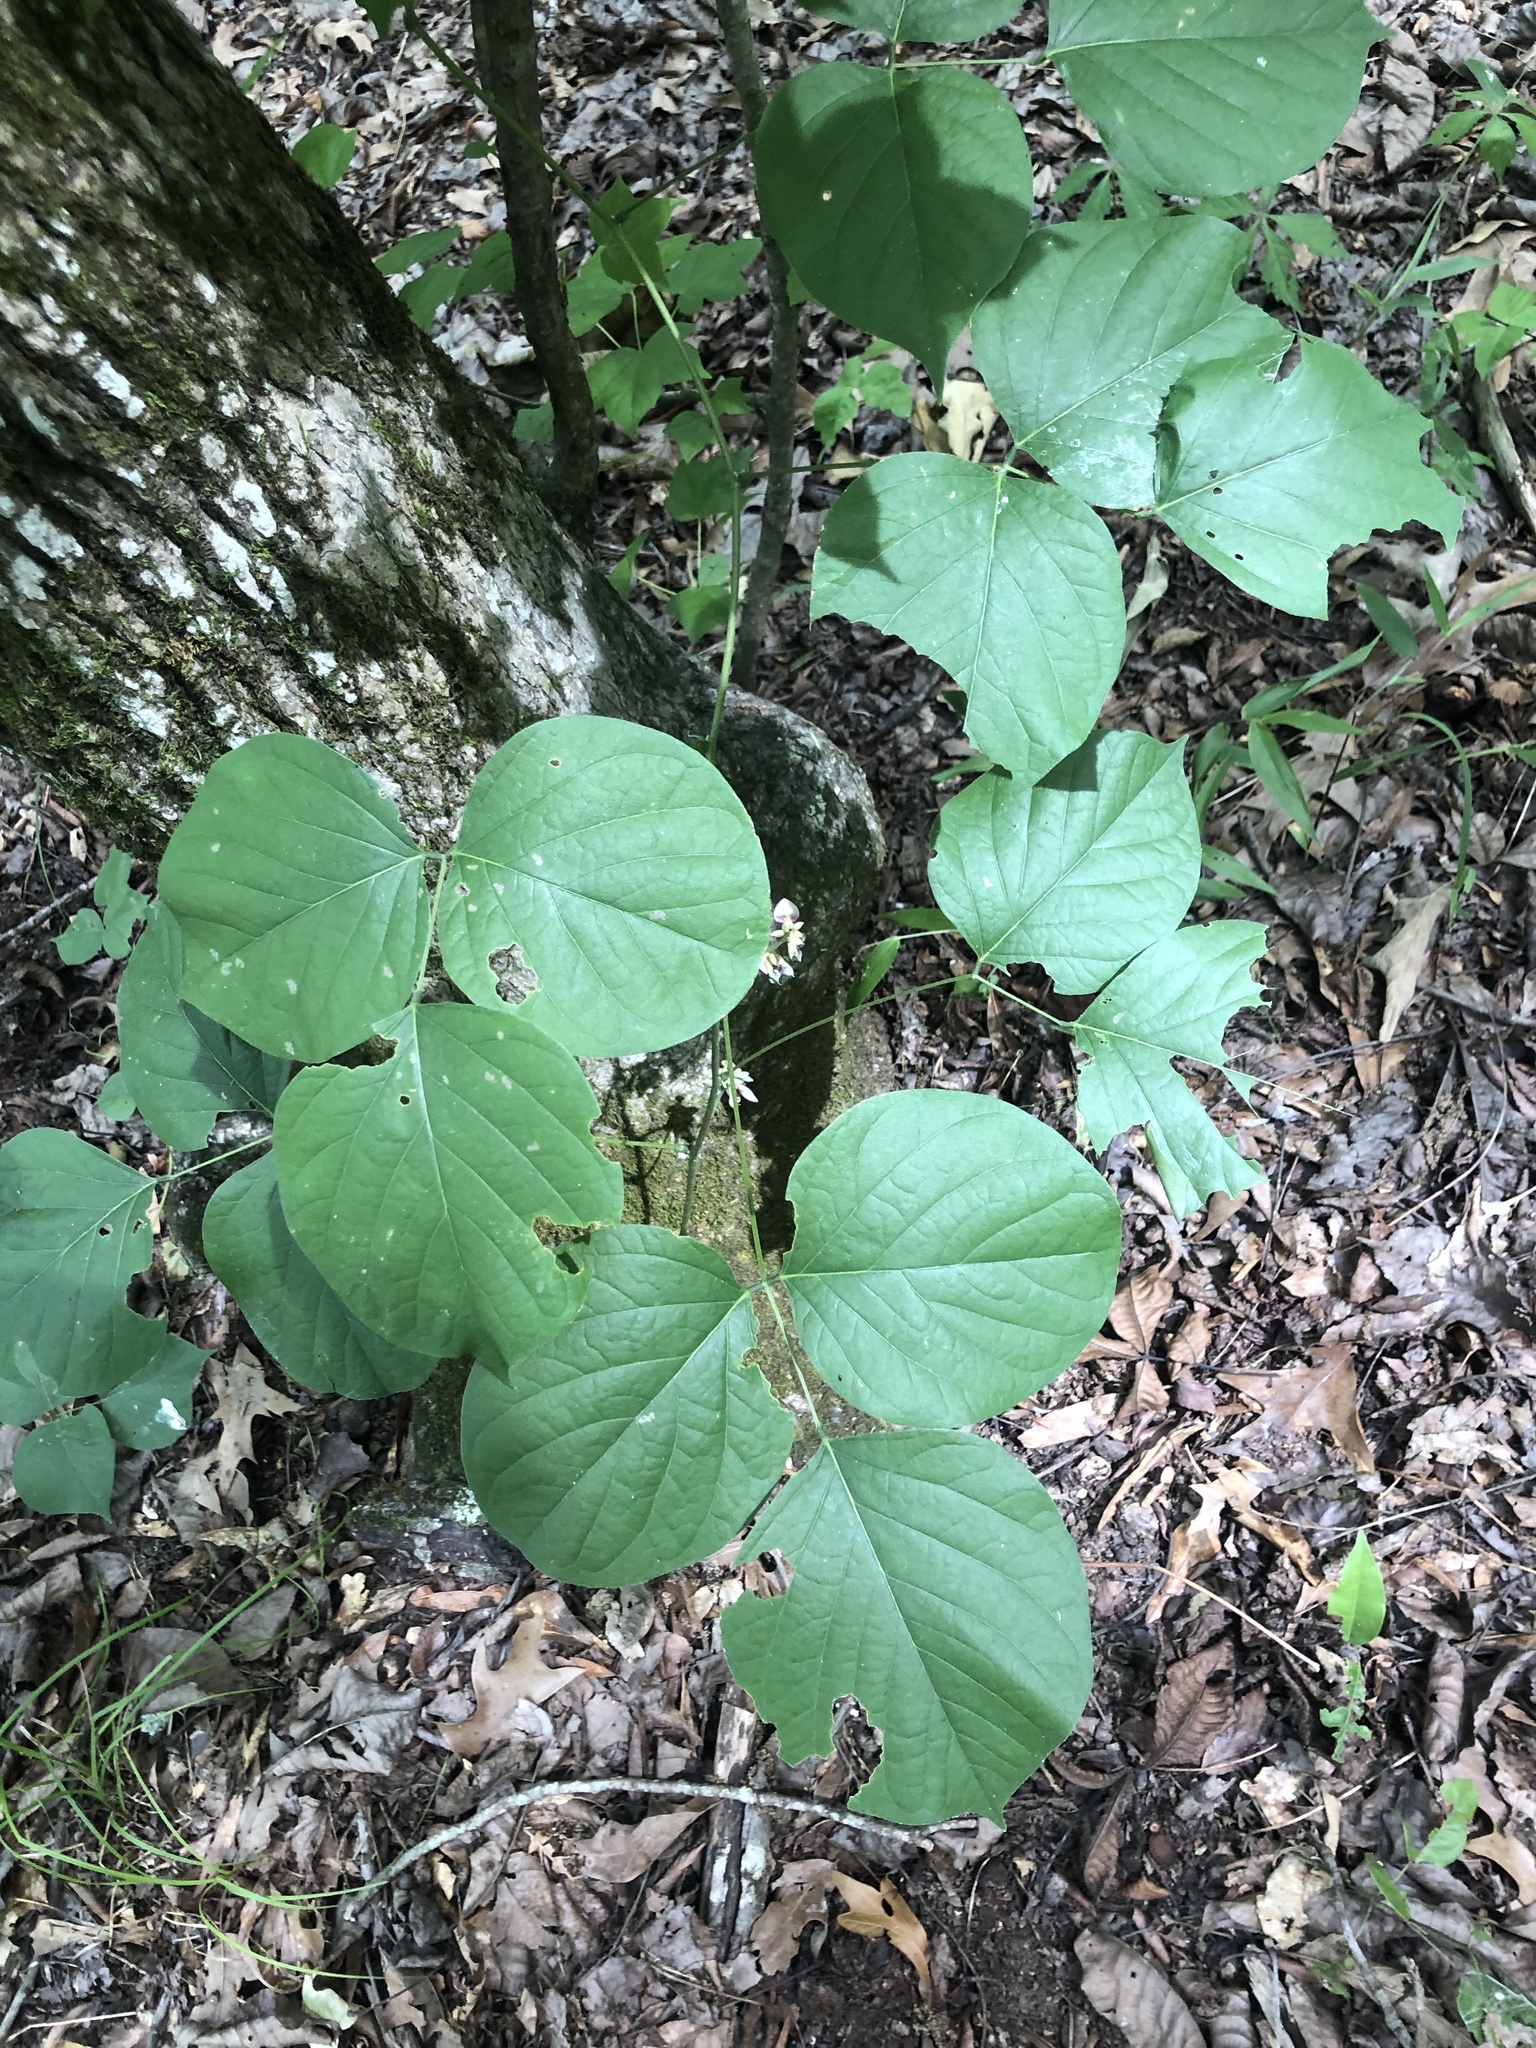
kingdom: Plantae
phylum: Tracheophyta
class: Magnoliopsida
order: Fabales
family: Fabaceae
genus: Lackeya
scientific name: Lackeya multiflora
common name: Boykin's clusterpea
